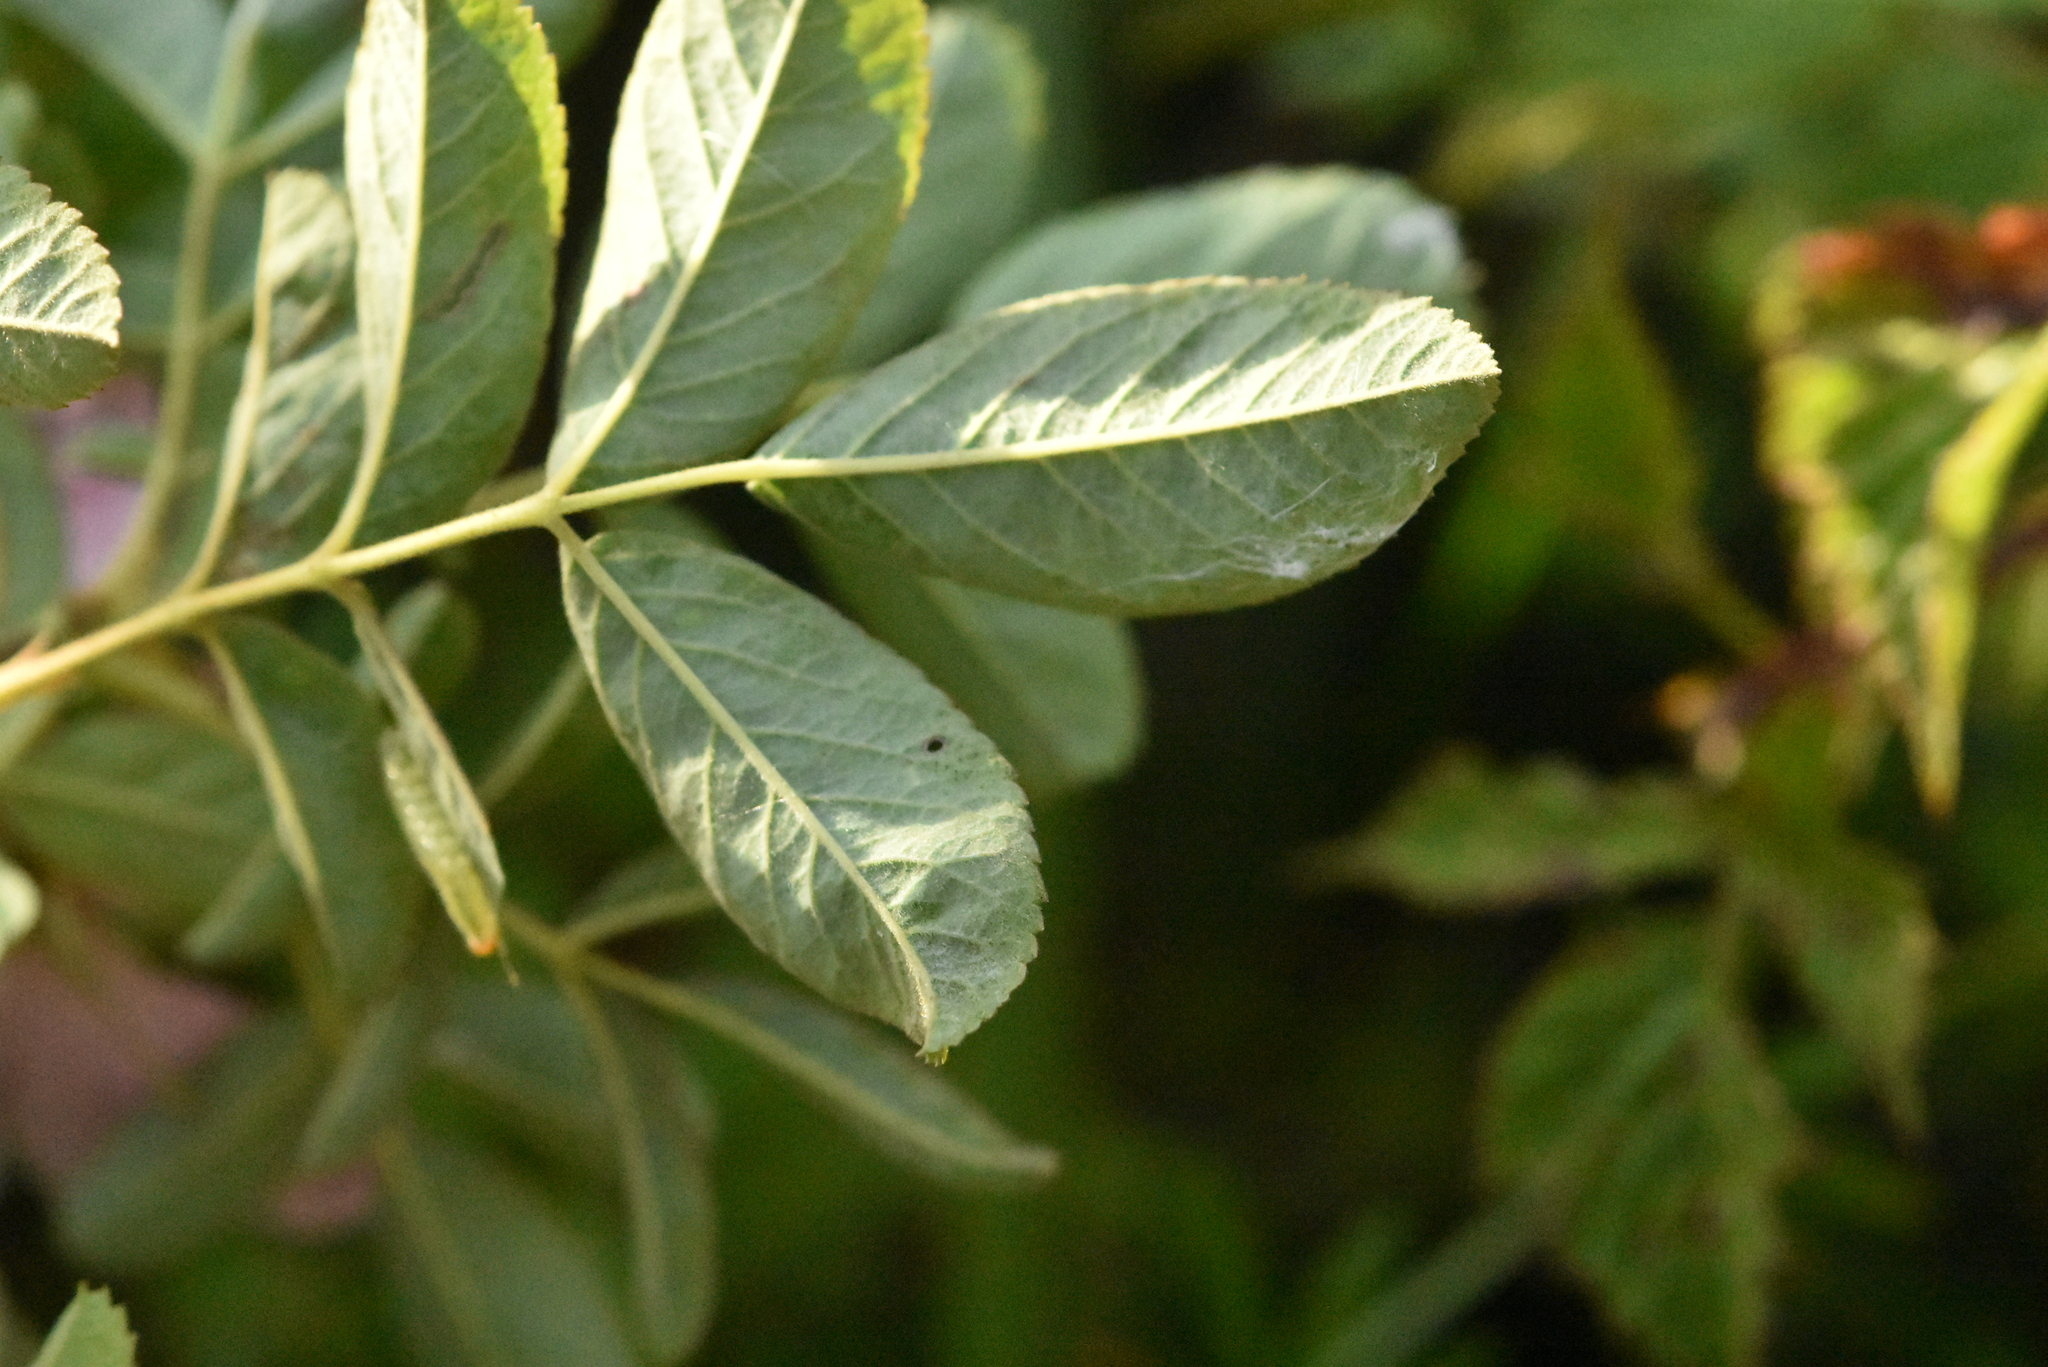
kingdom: Plantae
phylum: Tracheophyta
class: Magnoliopsida
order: Rosales
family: Rosaceae
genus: Rosa
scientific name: Rosa majalis
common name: Cinnamon rose
